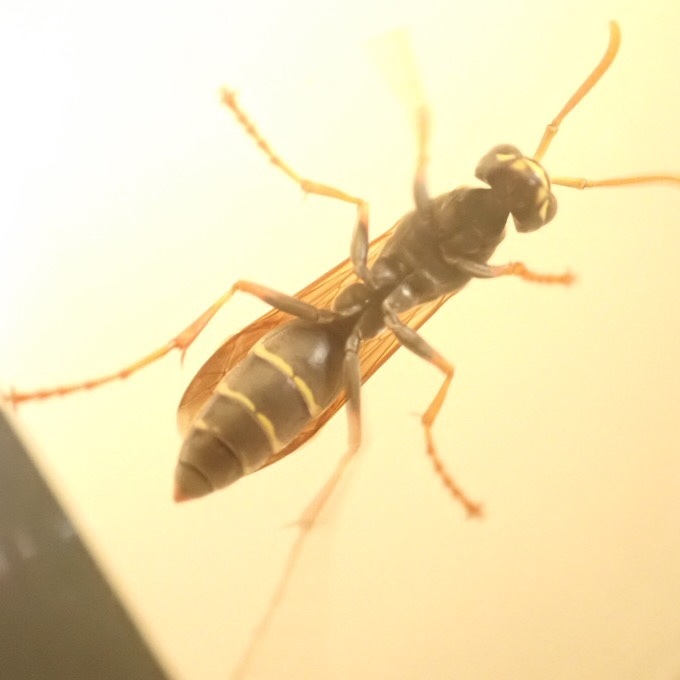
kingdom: Animalia
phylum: Arthropoda
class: Insecta
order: Hymenoptera
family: Eumenidae
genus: Polistes
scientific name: Polistes chinensis
